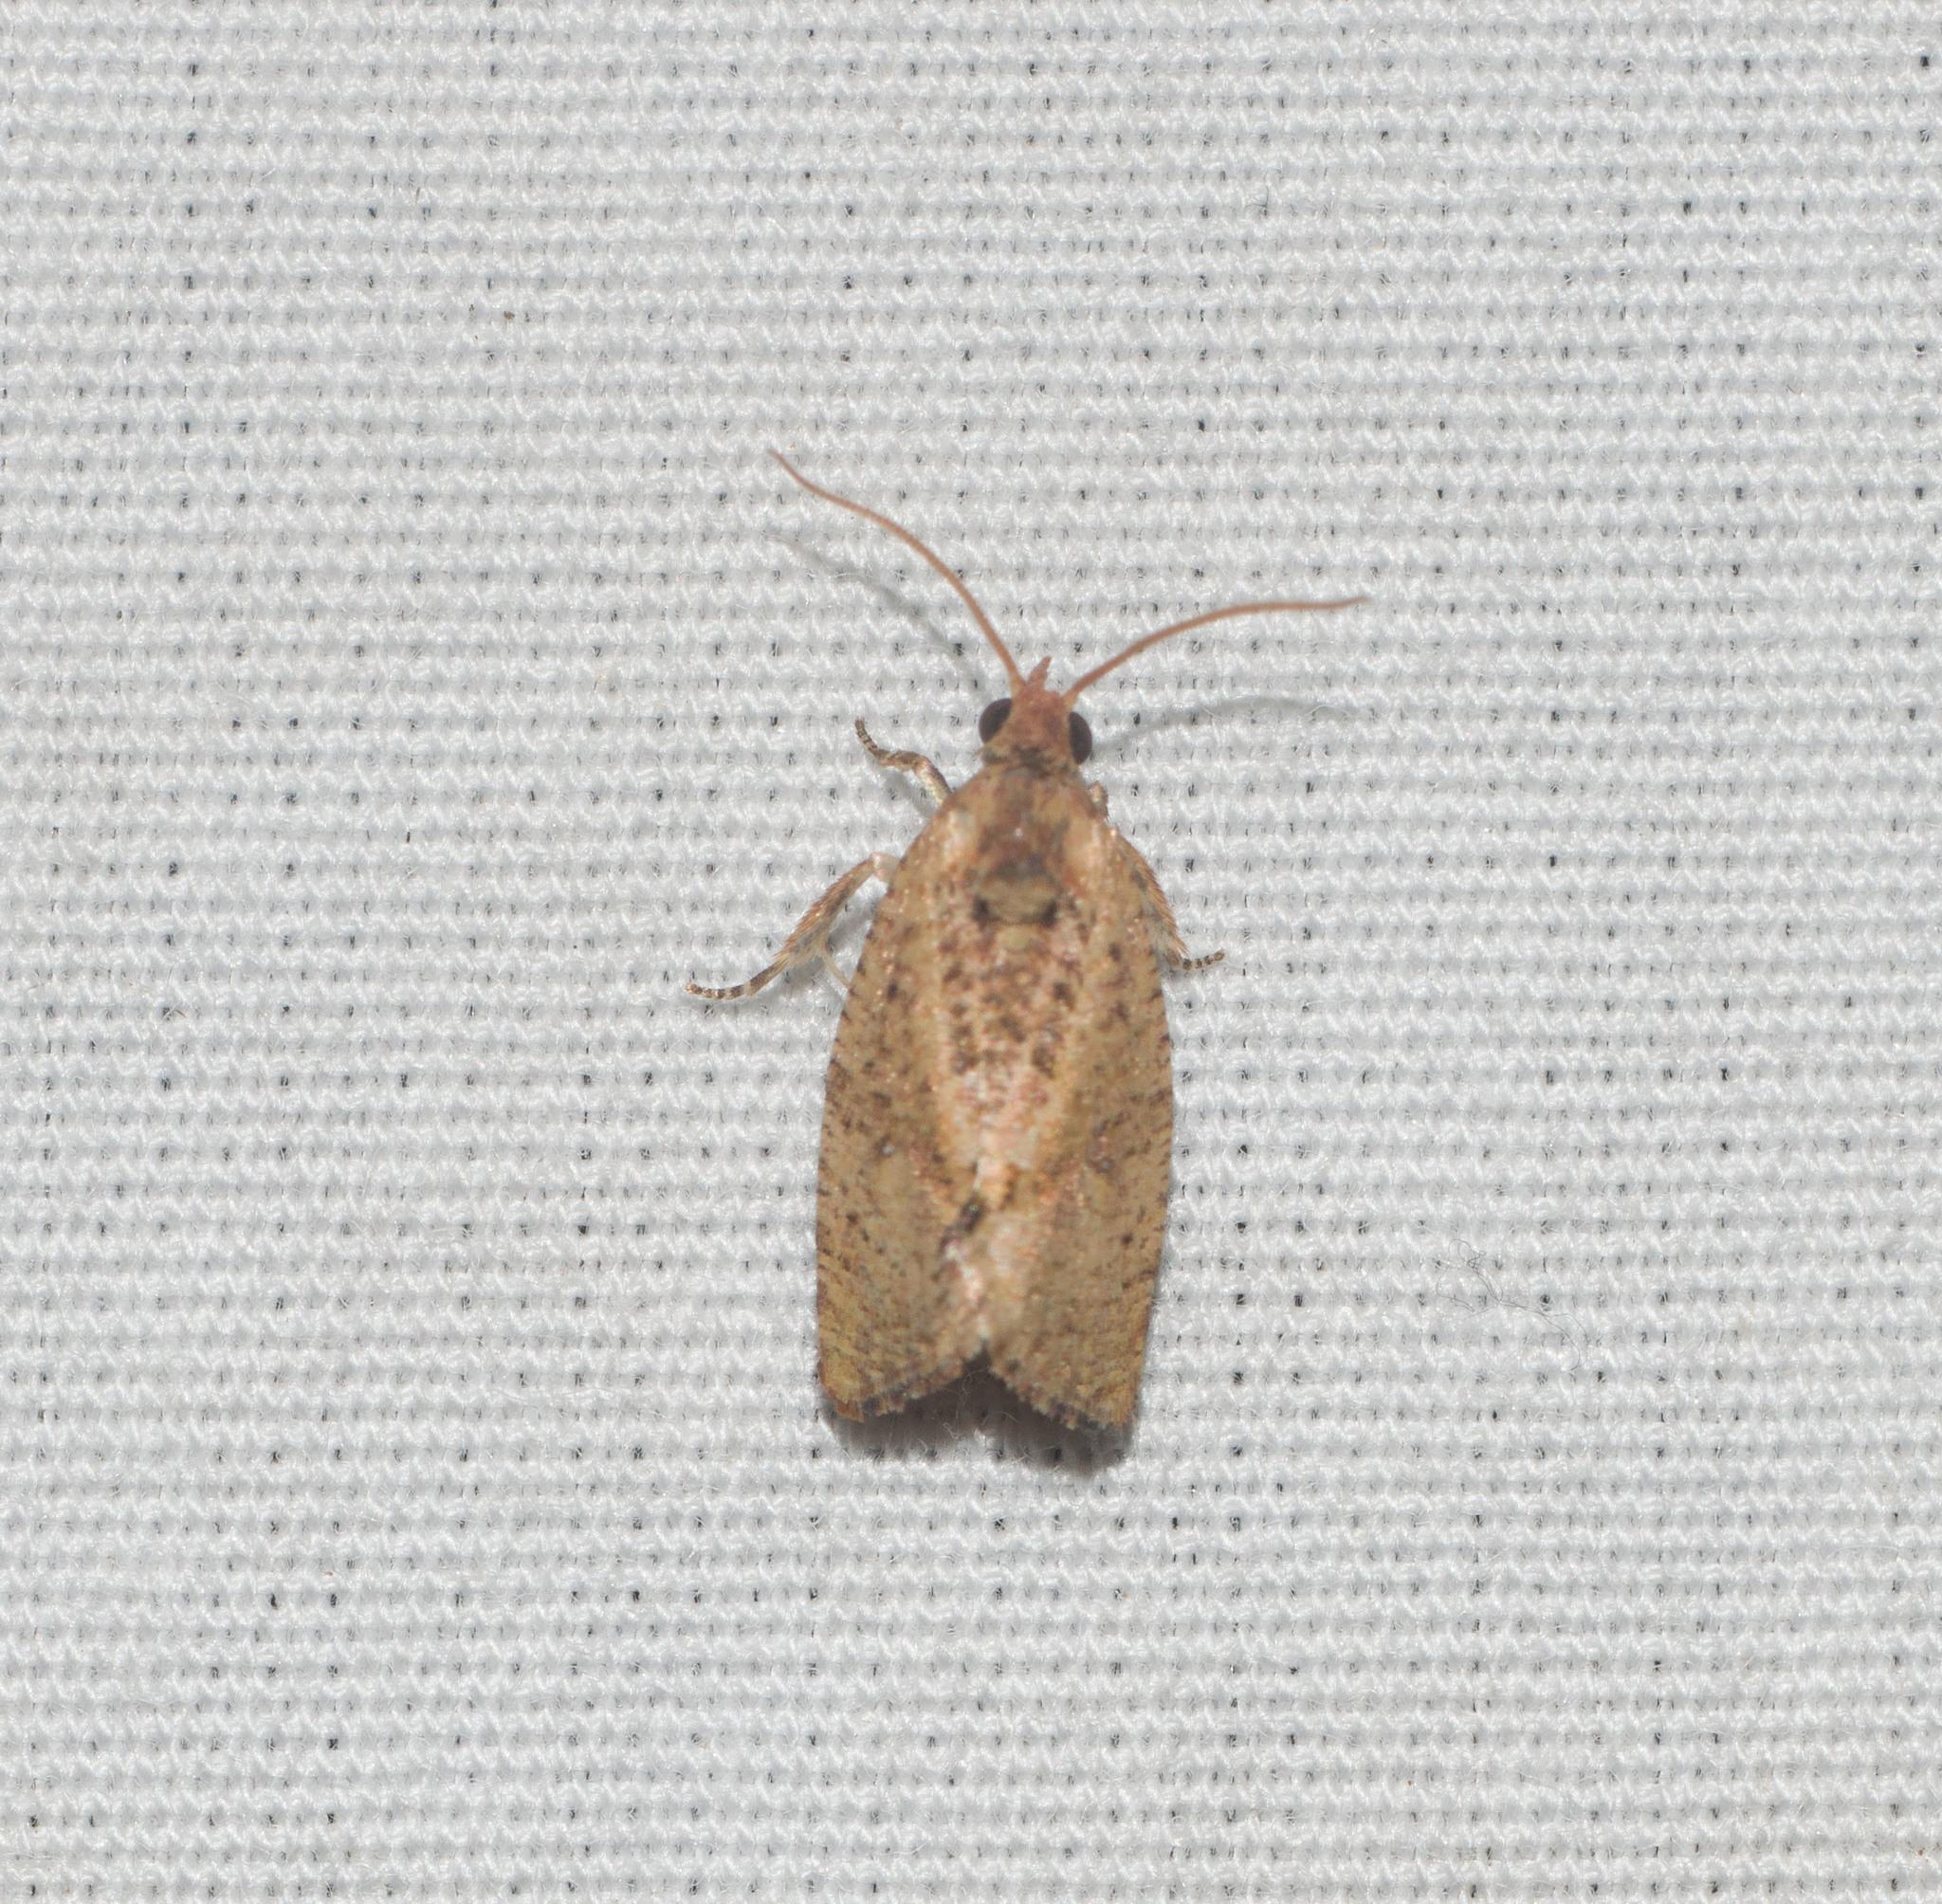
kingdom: Animalia
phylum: Arthropoda
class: Insecta
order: Lepidoptera
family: Tortricidae
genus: Cryptophlebia
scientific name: Cryptophlebia illepida
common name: Moth
